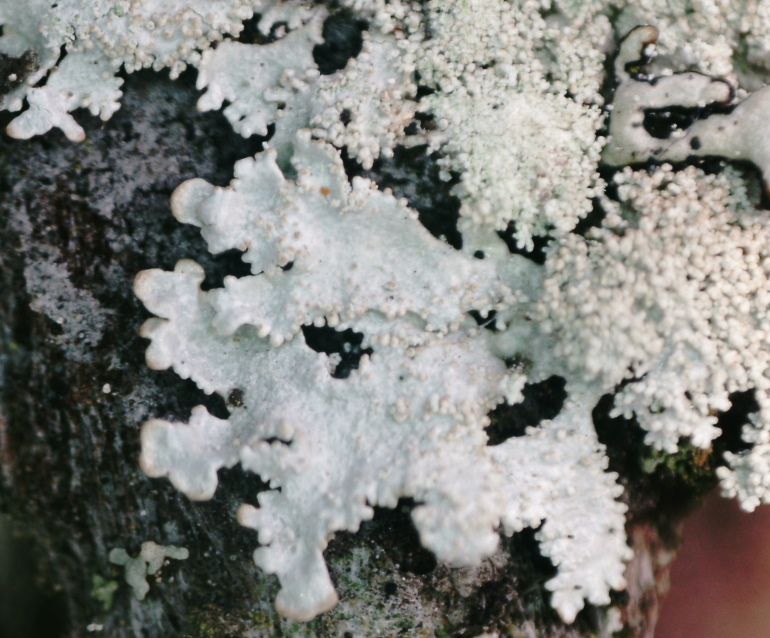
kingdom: Fungi
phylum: Ascomycota
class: Lecanoromycetes
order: Lecanorales
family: Parmeliaceae
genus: Imshaugia
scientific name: Imshaugia aleurites
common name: Salted starburst lichen
